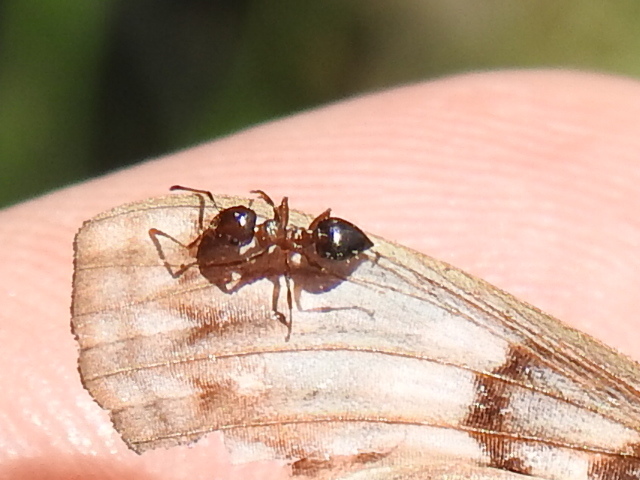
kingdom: Animalia
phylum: Arthropoda
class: Insecta
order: Hymenoptera
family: Formicidae
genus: Crematogaster
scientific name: Crematogaster laeviuscula
